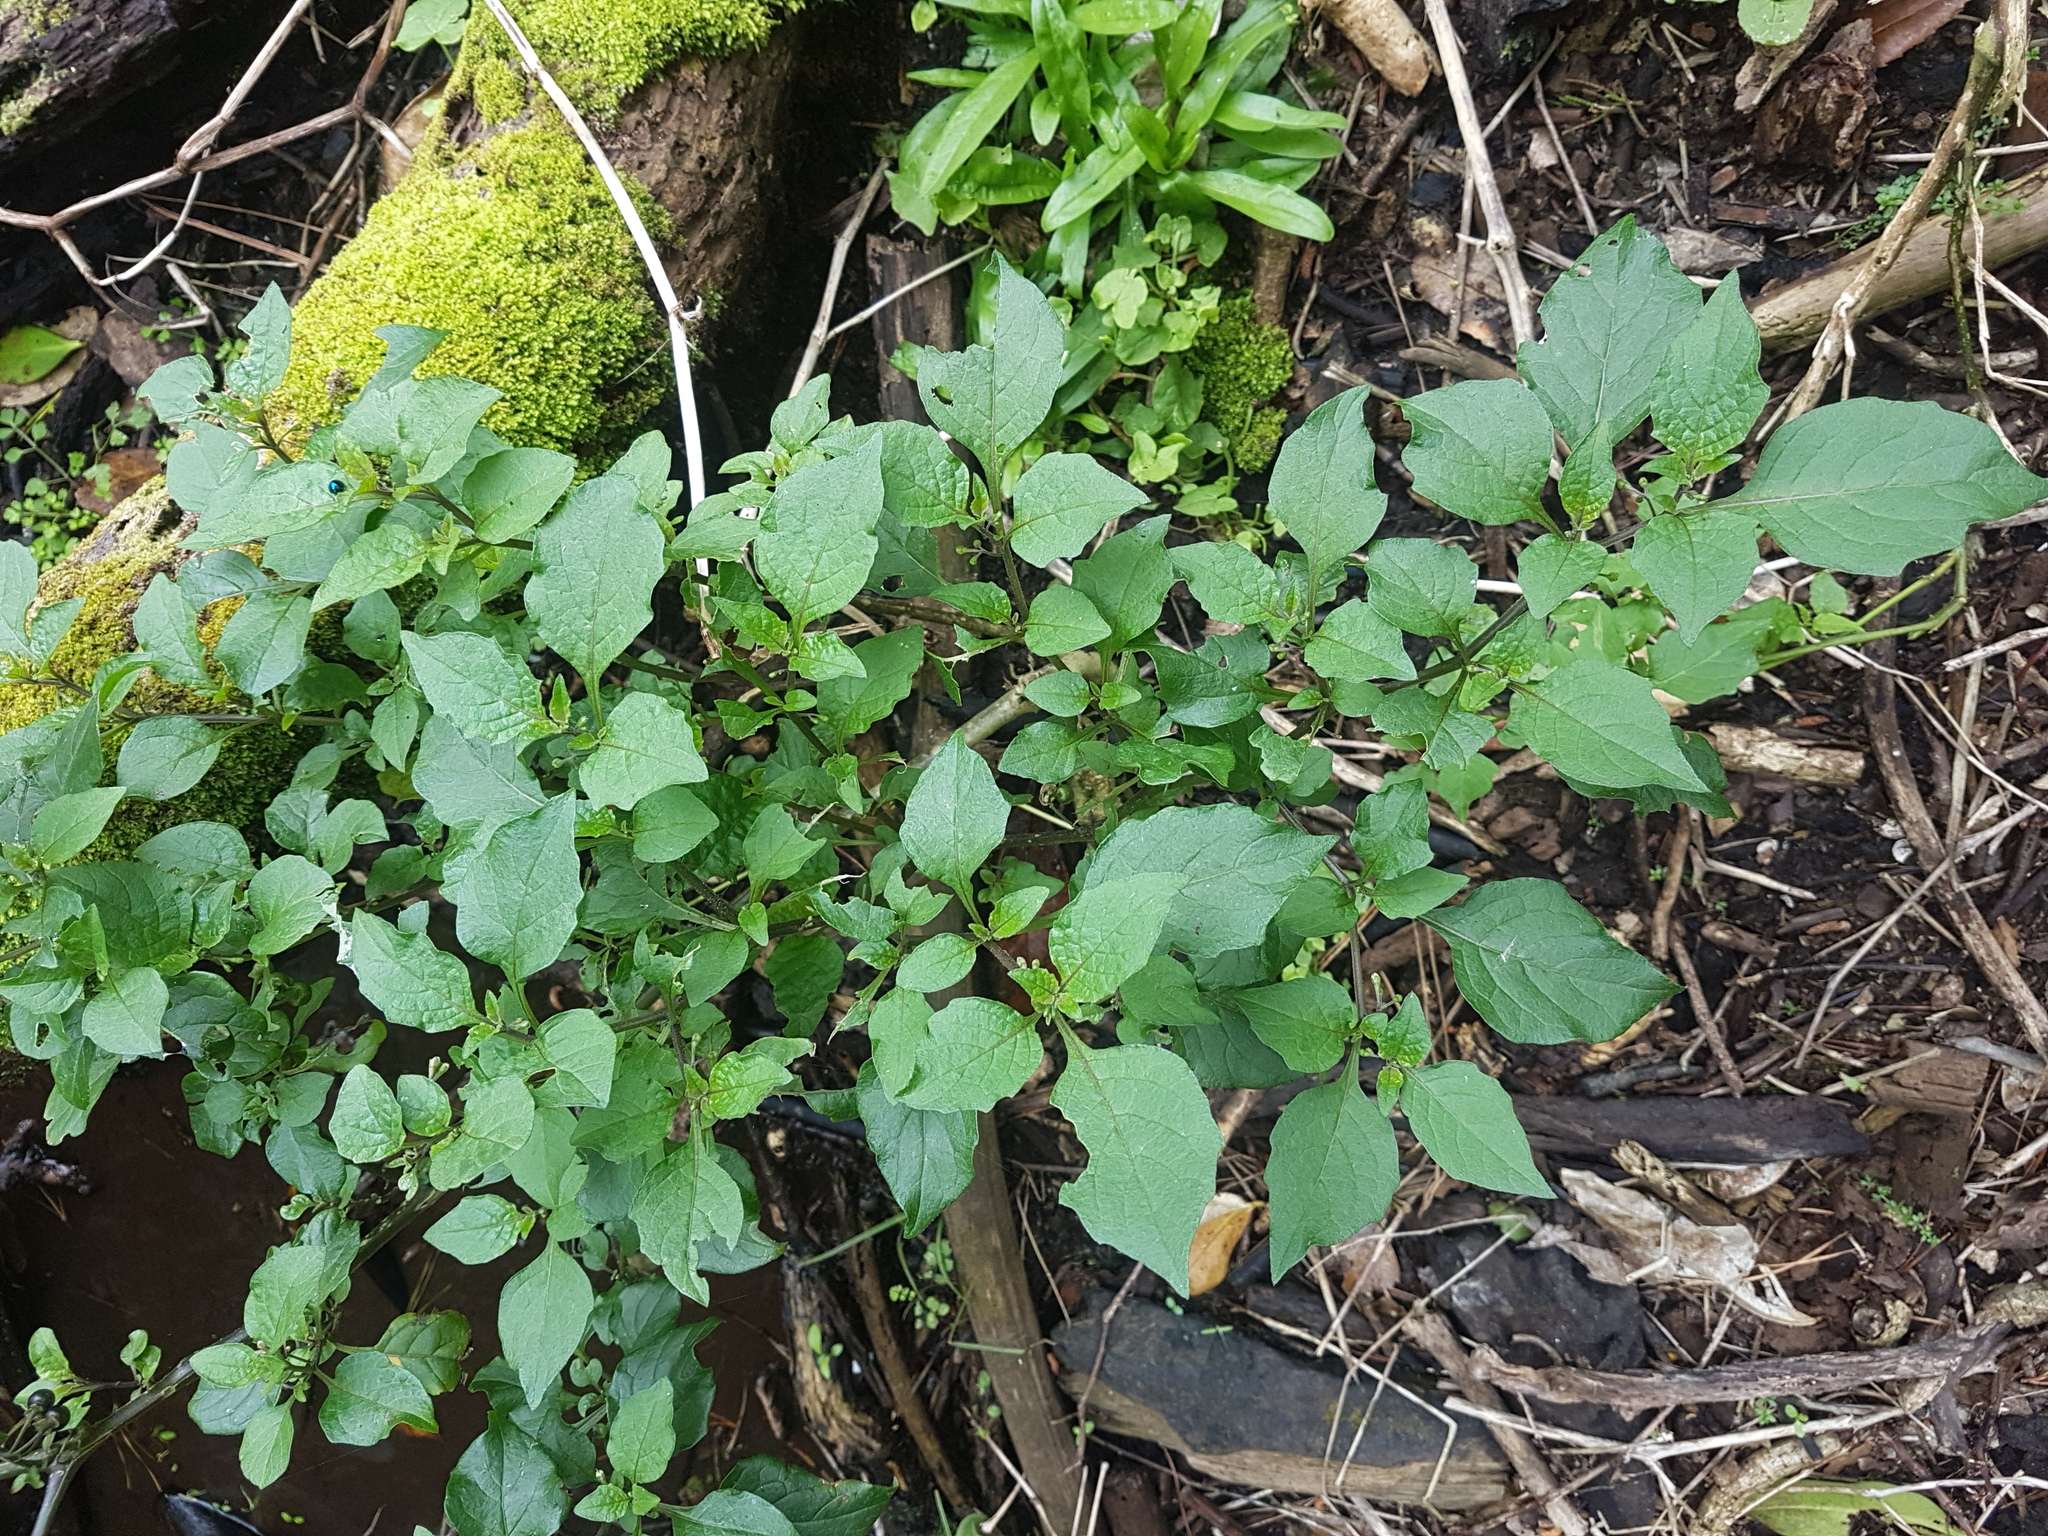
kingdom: Plantae
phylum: Tracheophyta
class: Magnoliopsida
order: Solanales
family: Solanaceae
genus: Solanum
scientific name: Solanum nigrum
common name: Black nightshade
